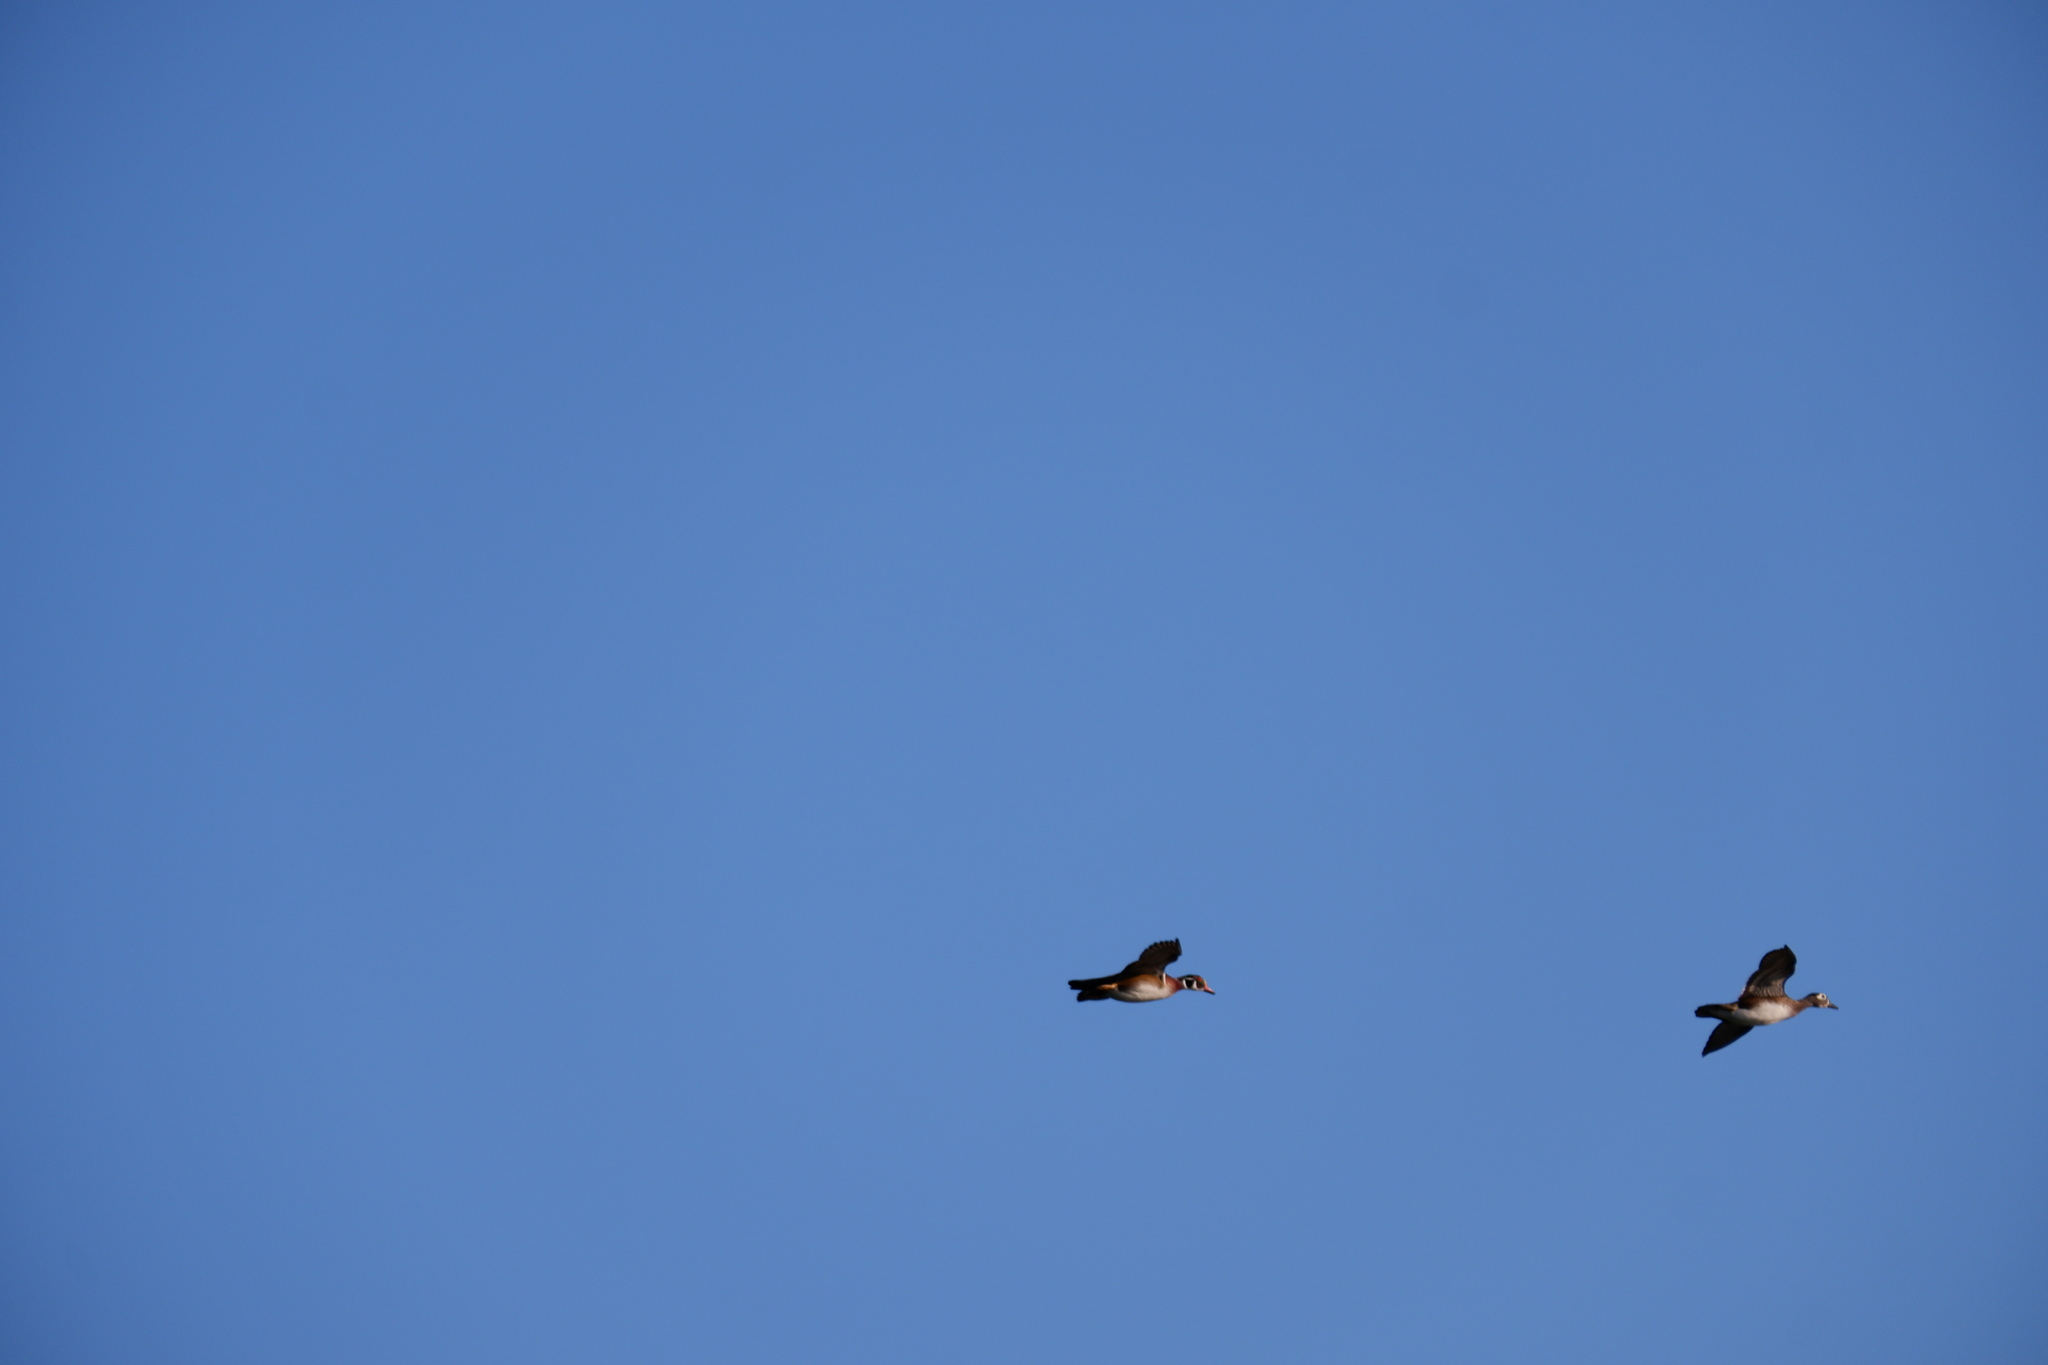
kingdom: Animalia
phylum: Chordata
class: Aves
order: Anseriformes
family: Anatidae
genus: Aix
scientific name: Aix sponsa
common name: Wood duck
